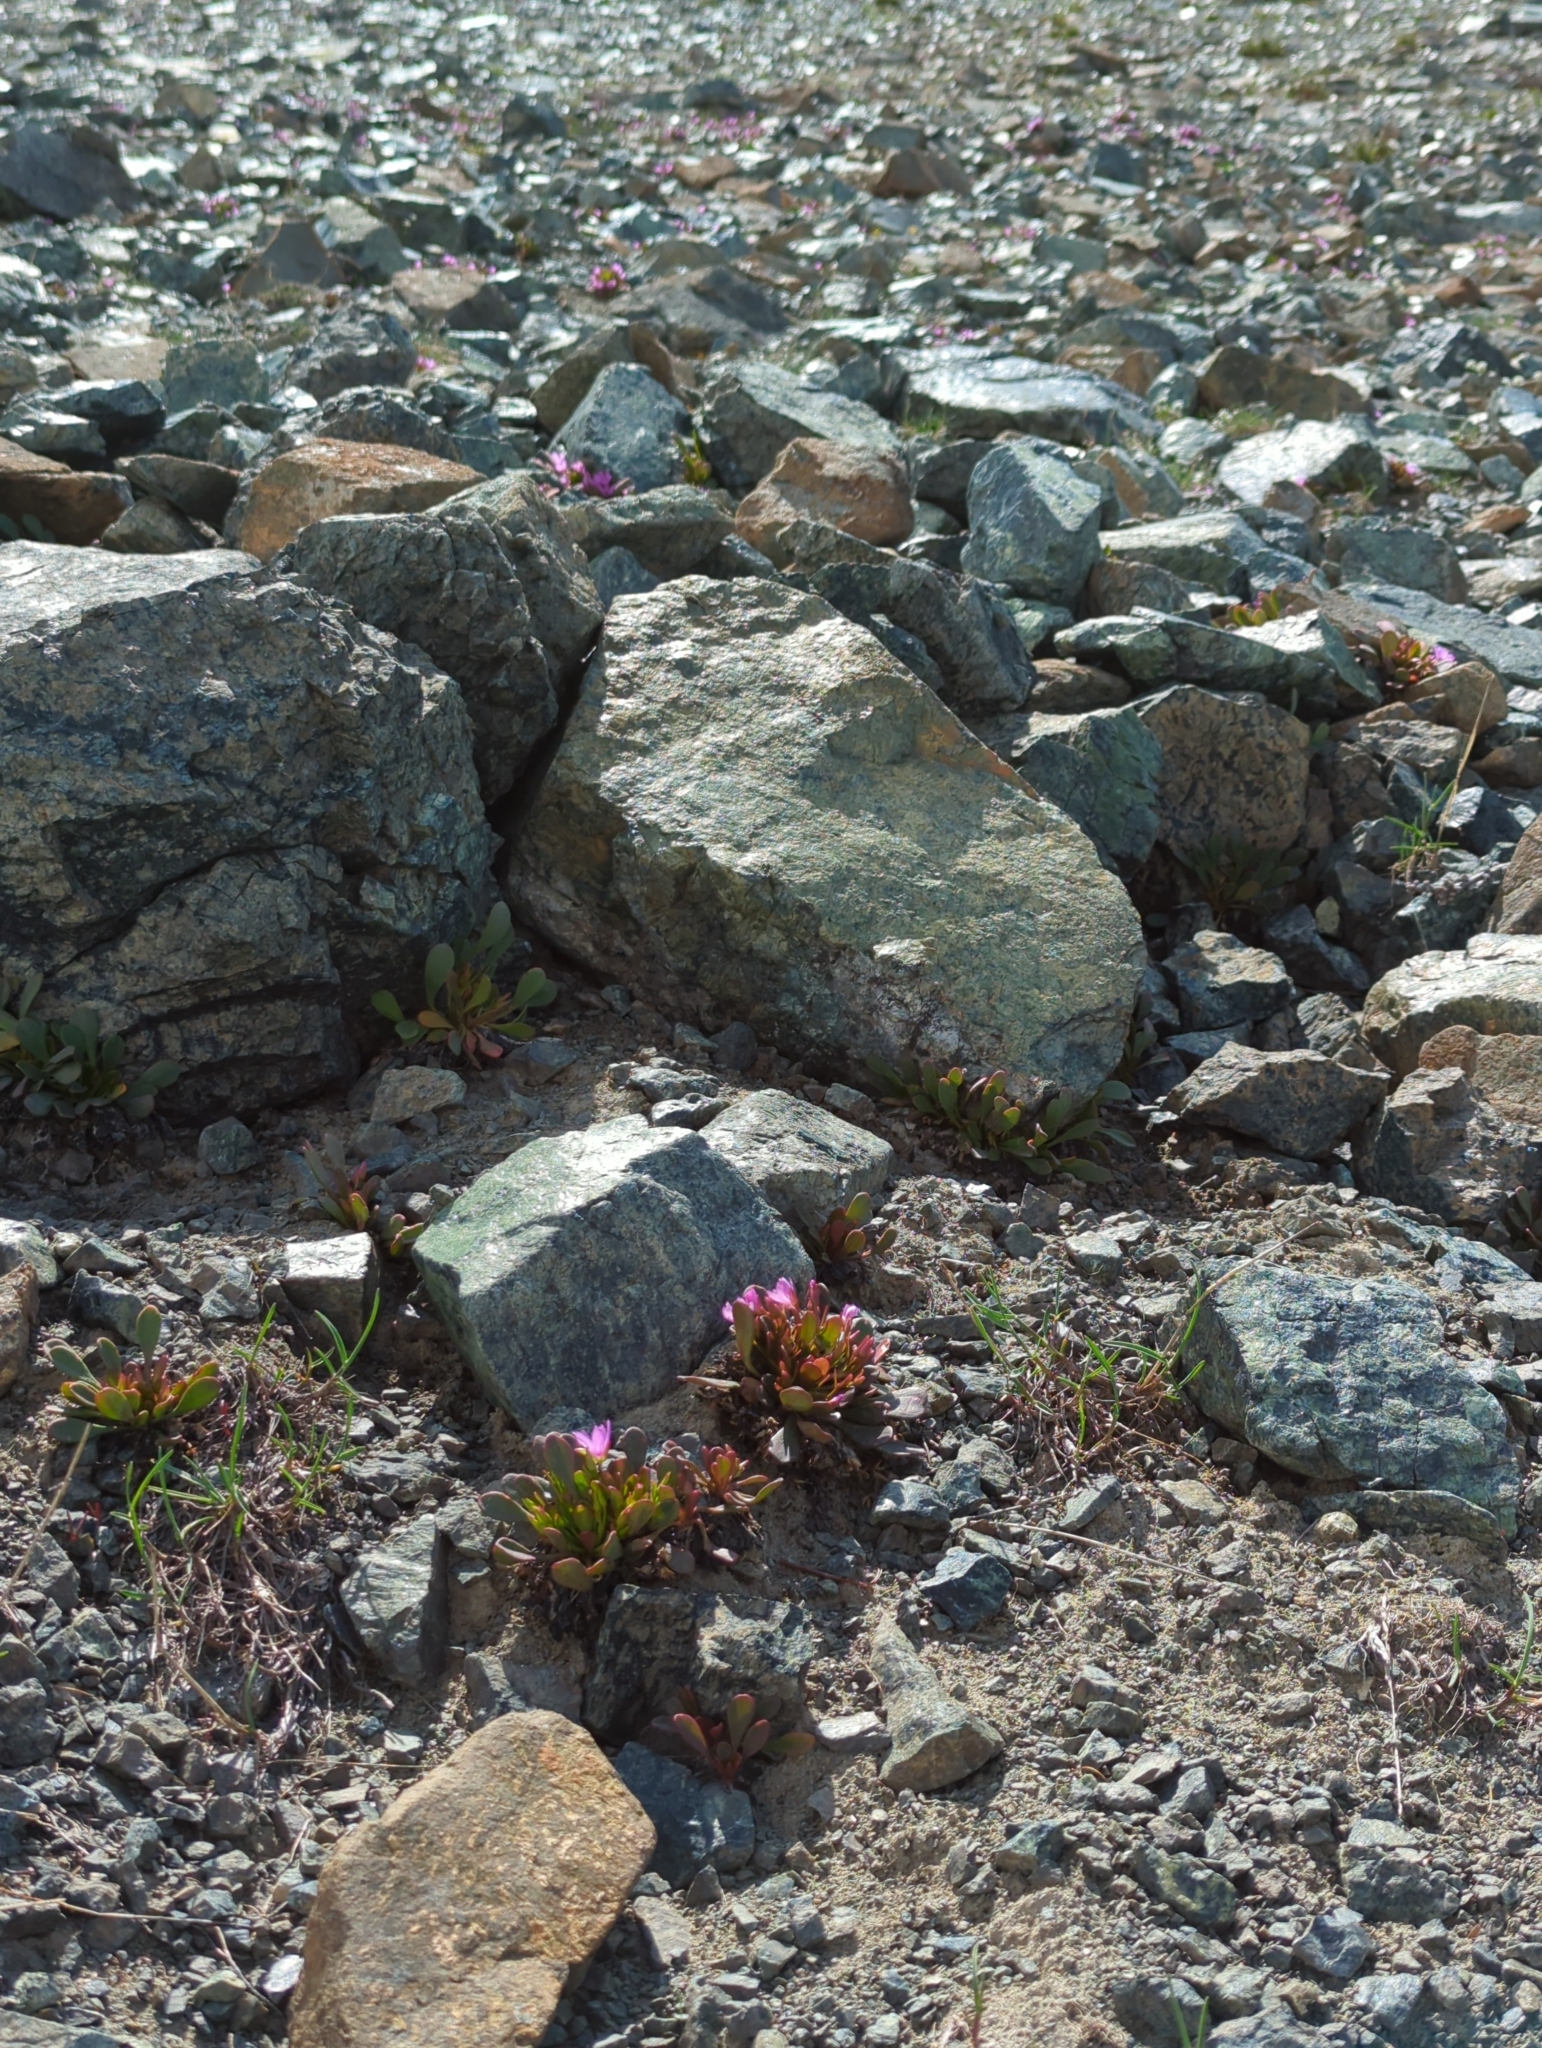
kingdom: Plantae
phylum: Tracheophyta
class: Magnoliopsida
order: Caryophyllales
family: Montiaceae
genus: Claytonia
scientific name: Claytonia megarhiza
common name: Alpine spring beauty
